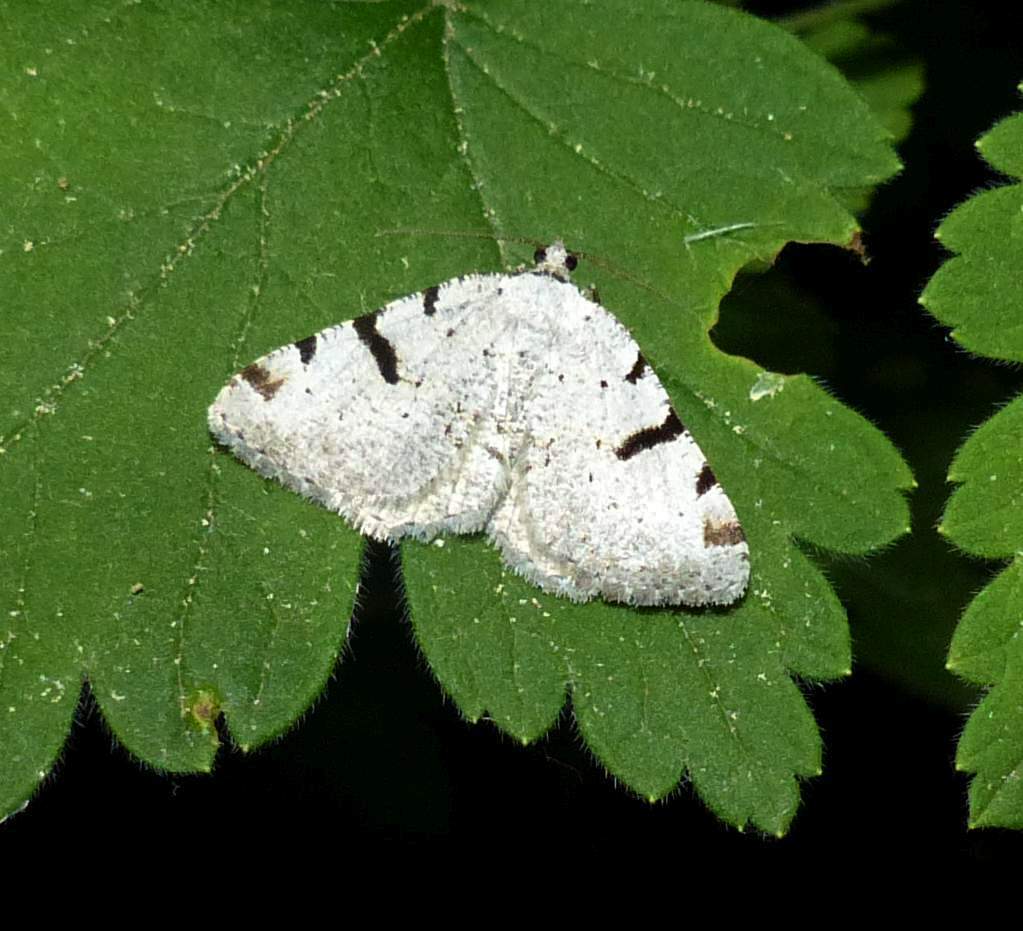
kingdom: Animalia
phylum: Arthropoda
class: Insecta
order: Lepidoptera
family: Geometridae
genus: Macaria
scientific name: Macaria subcessaria
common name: Barred angle
